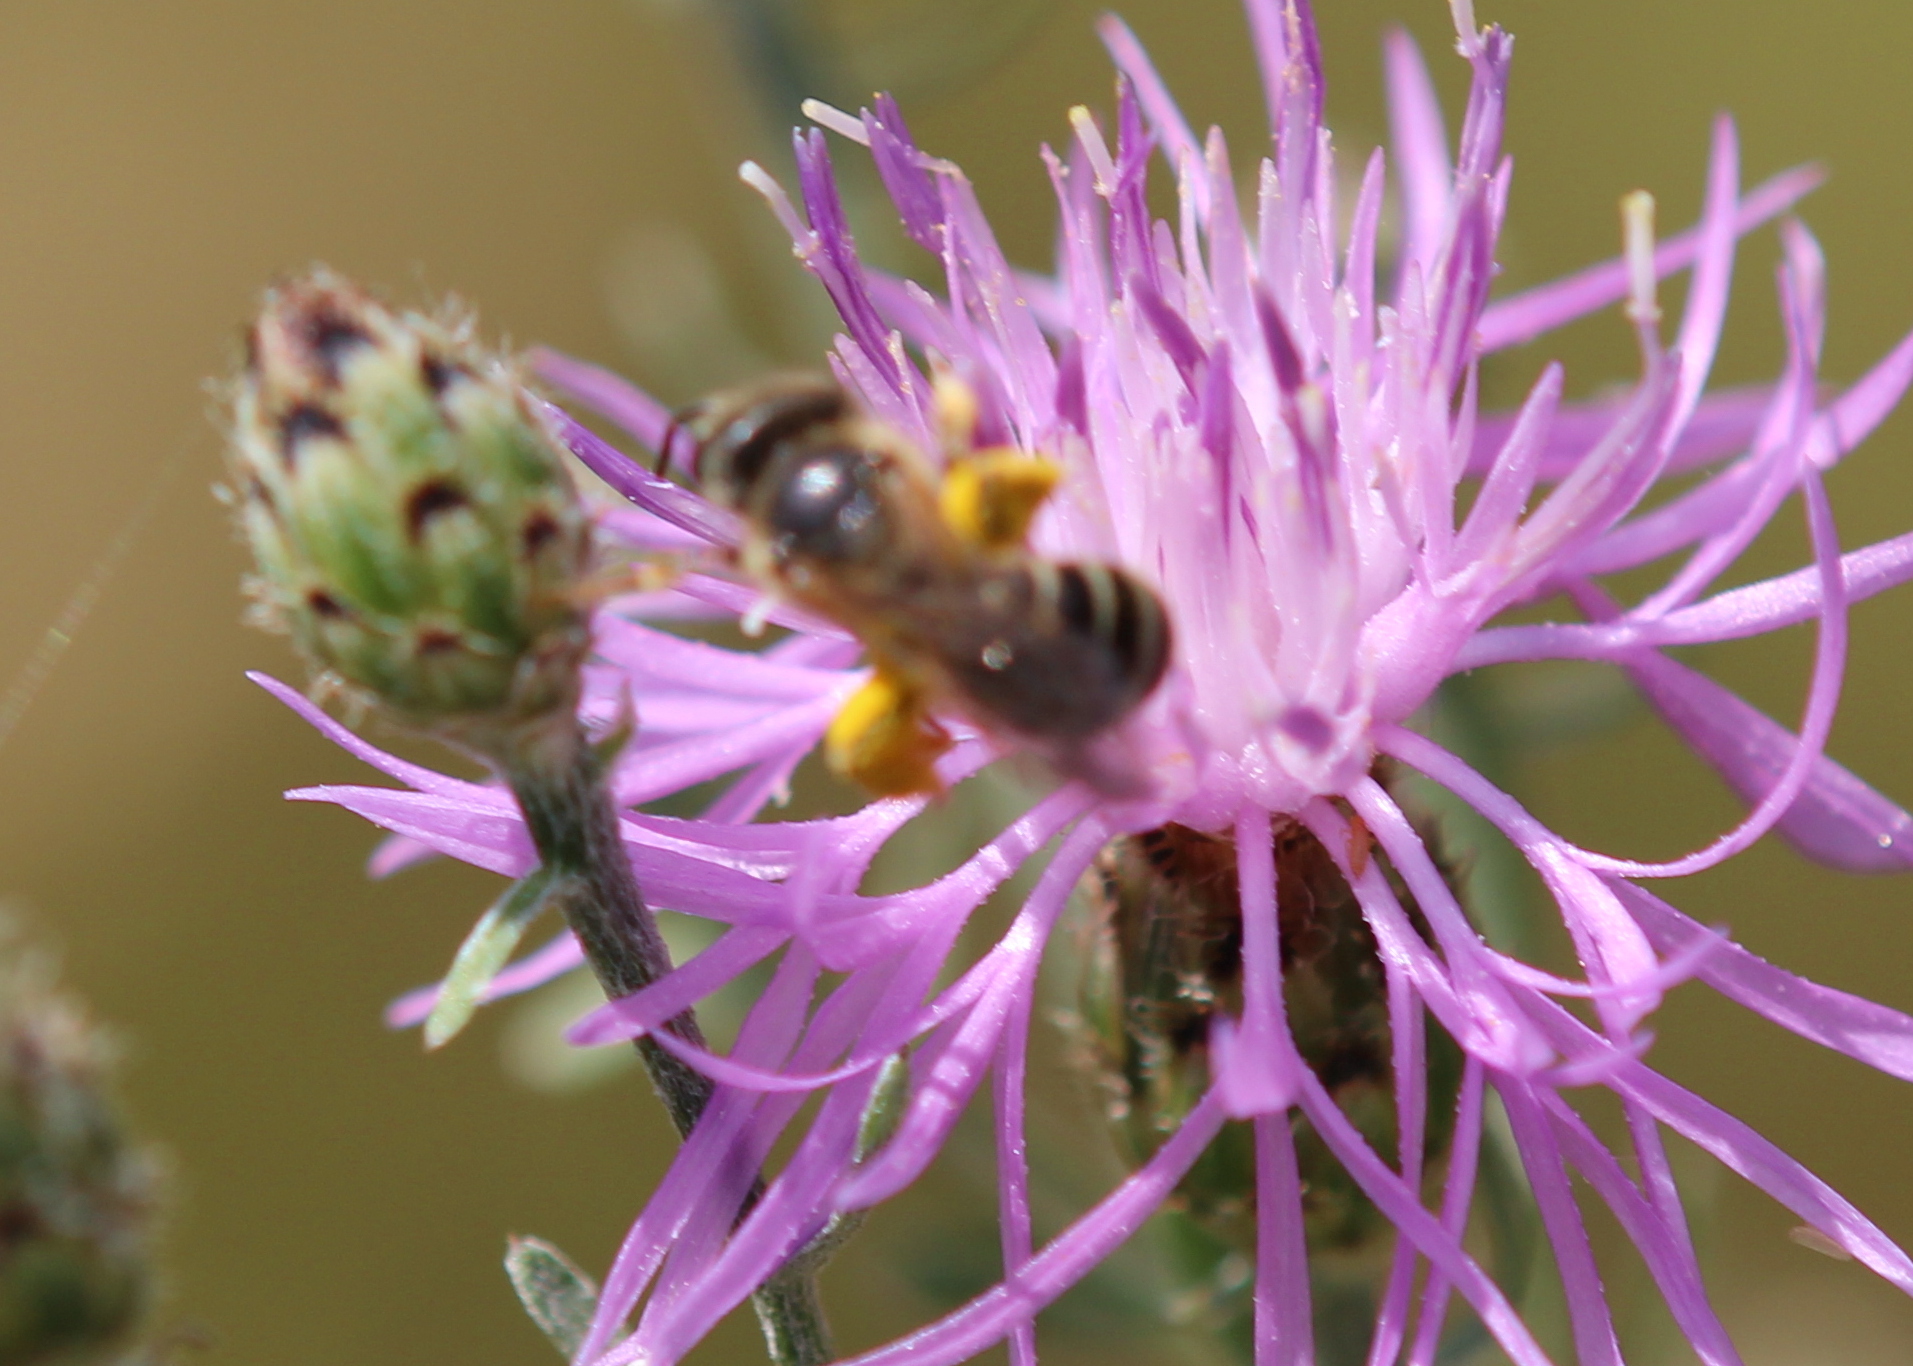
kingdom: Animalia
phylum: Arthropoda
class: Insecta
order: Hymenoptera
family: Halictidae
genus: Halictus
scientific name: Halictus ligatus
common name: Ligated furrow bee
